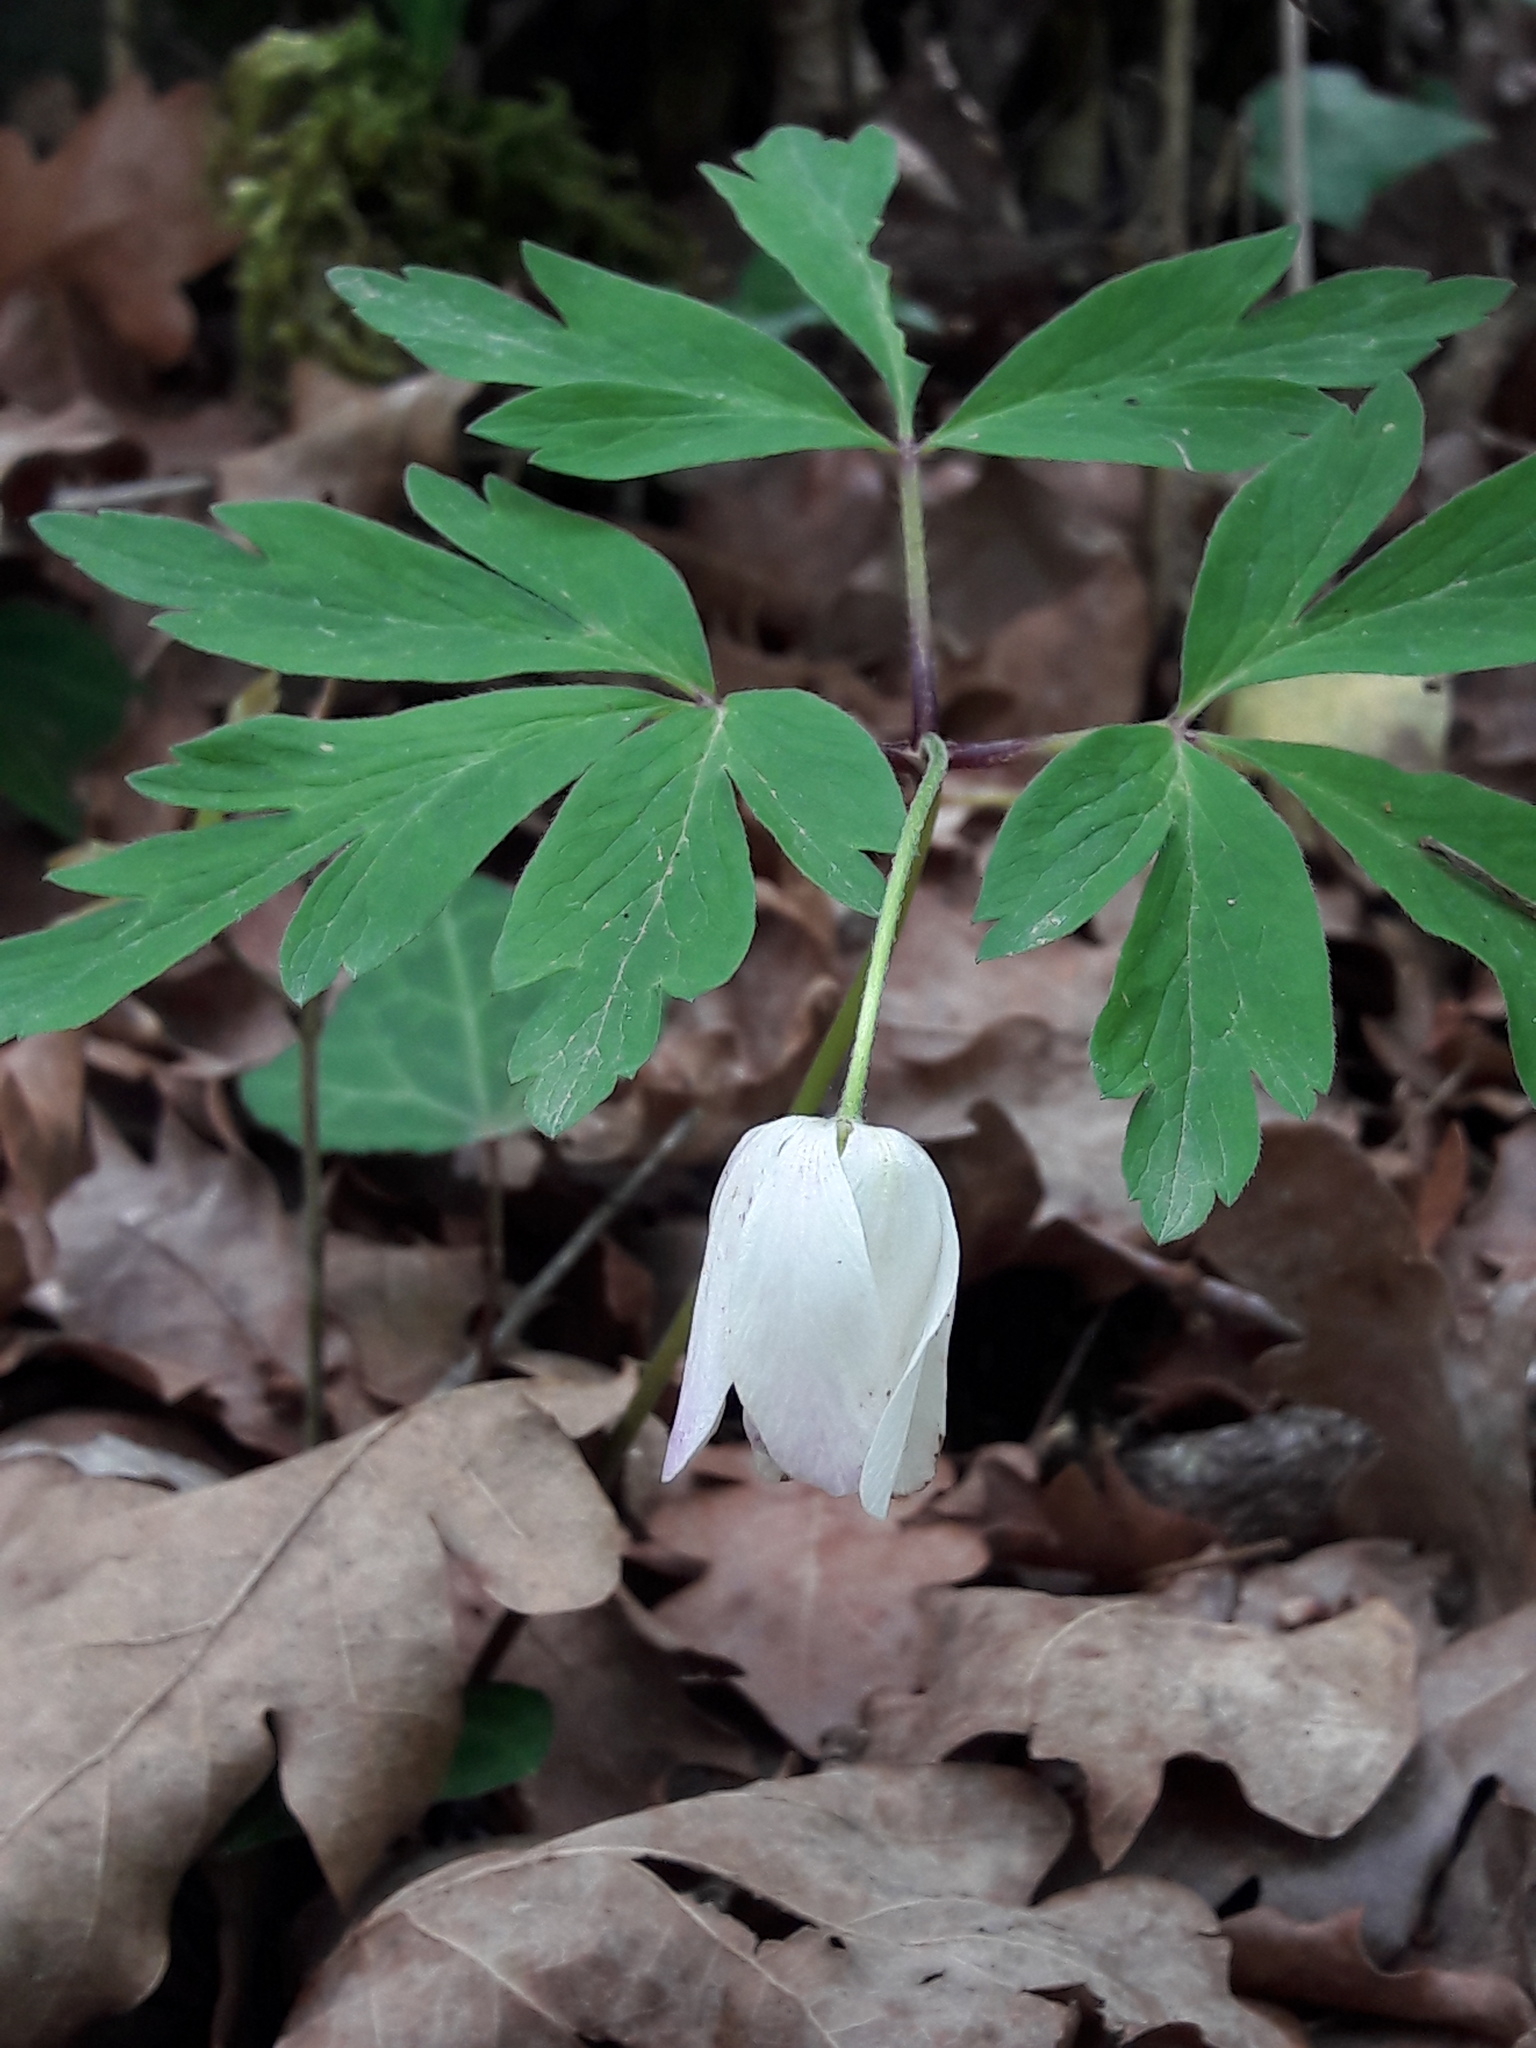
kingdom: Plantae
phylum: Tracheophyta
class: Magnoliopsida
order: Ranunculales
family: Ranunculaceae
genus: Anemone
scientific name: Anemone nemorosa
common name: Wood anemone
